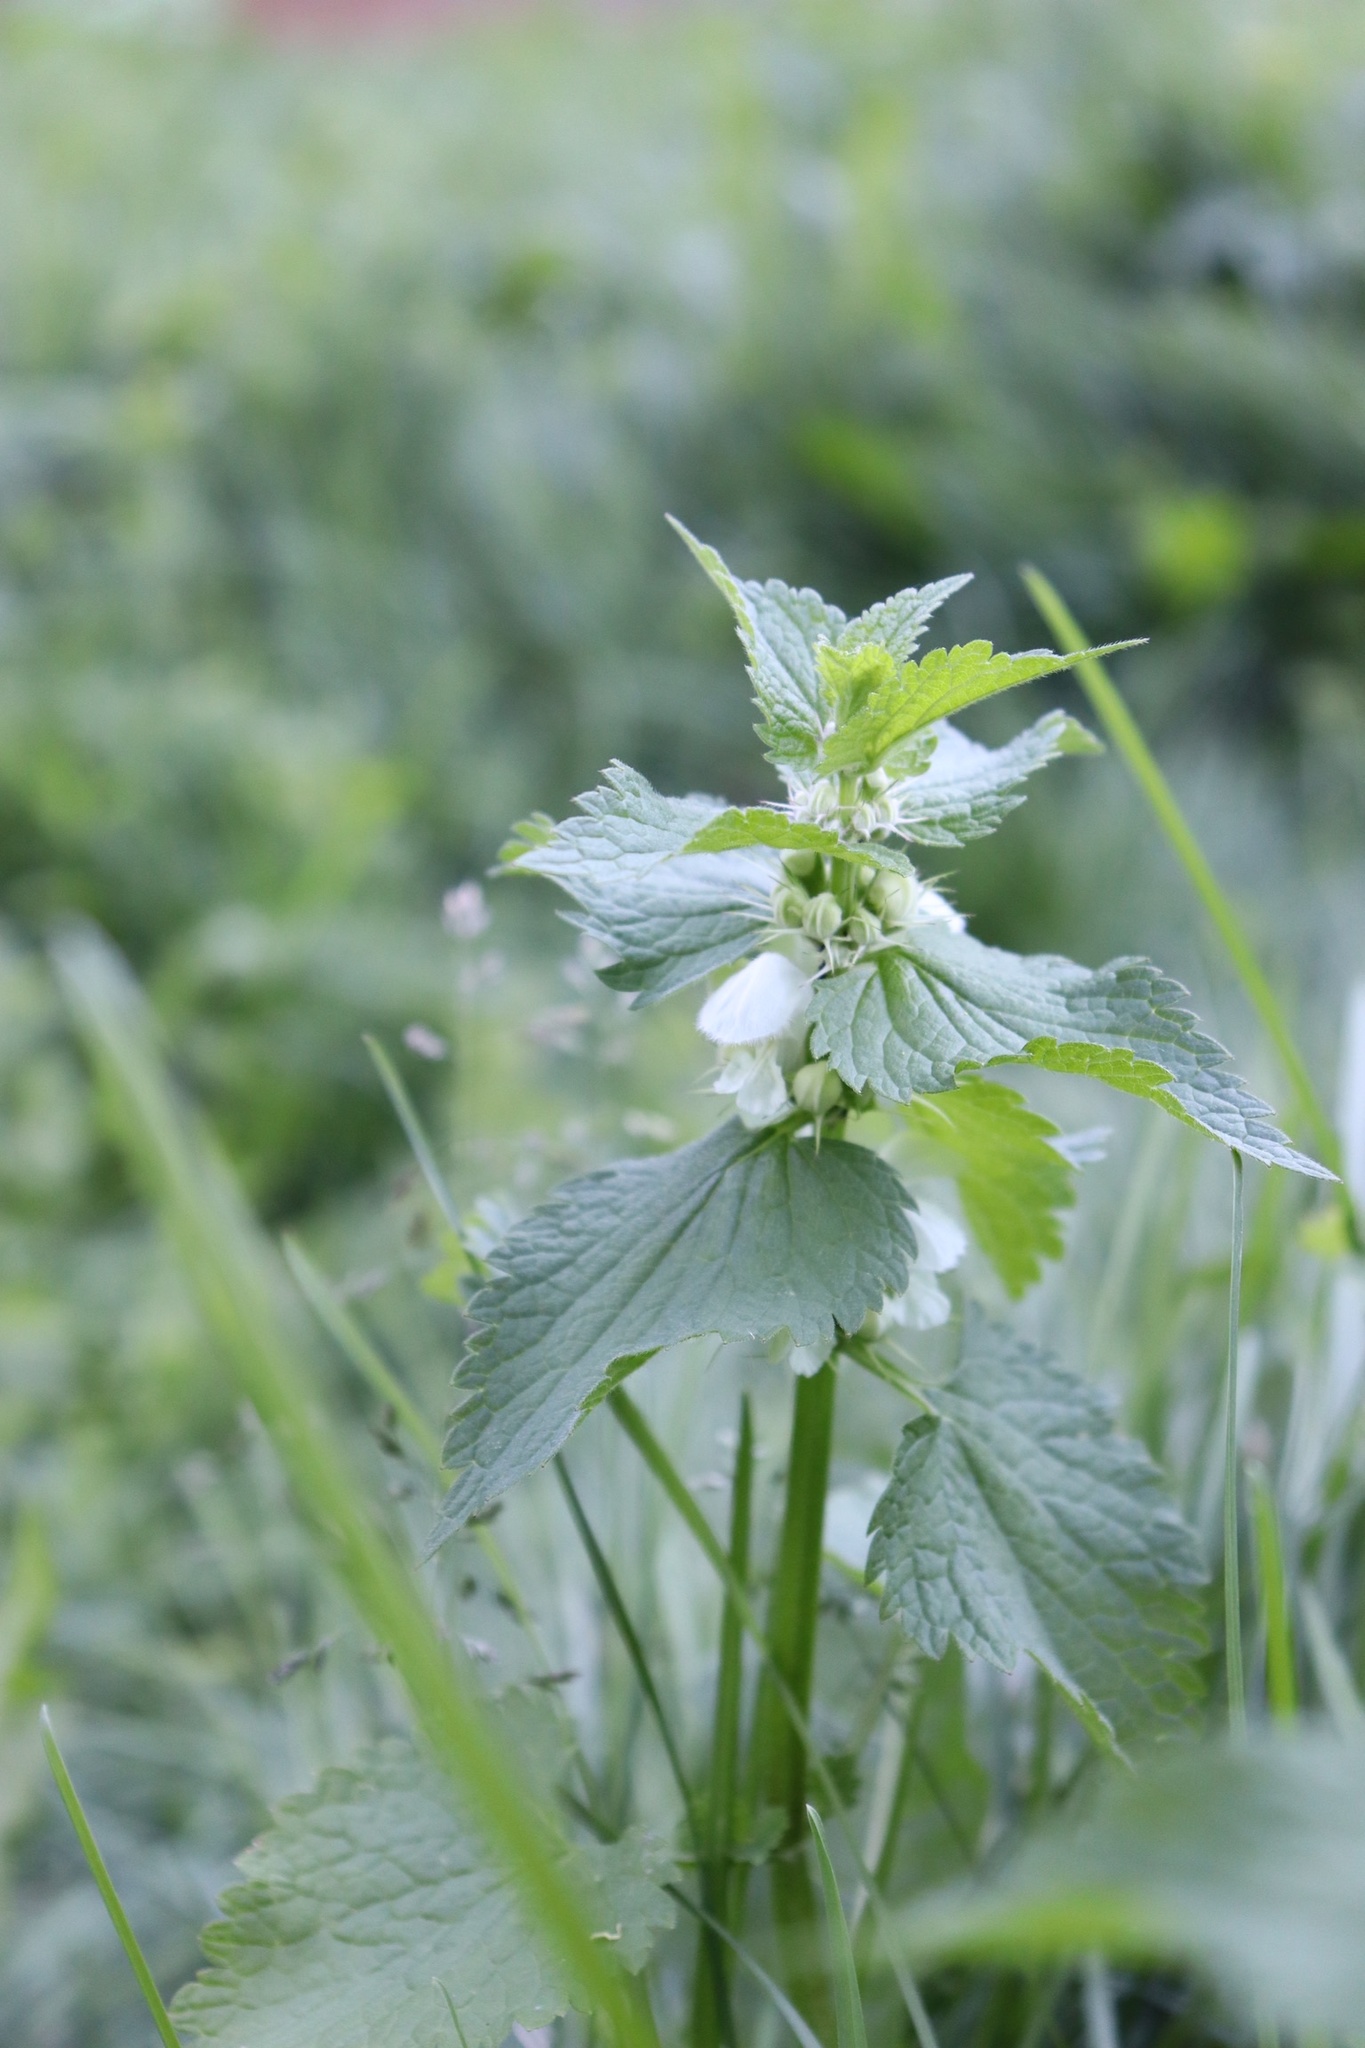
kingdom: Plantae
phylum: Tracheophyta
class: Magnoliopsida
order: Lamiales
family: Lamiaceae
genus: Lamium
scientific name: Lamium album
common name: White dead-nettle
